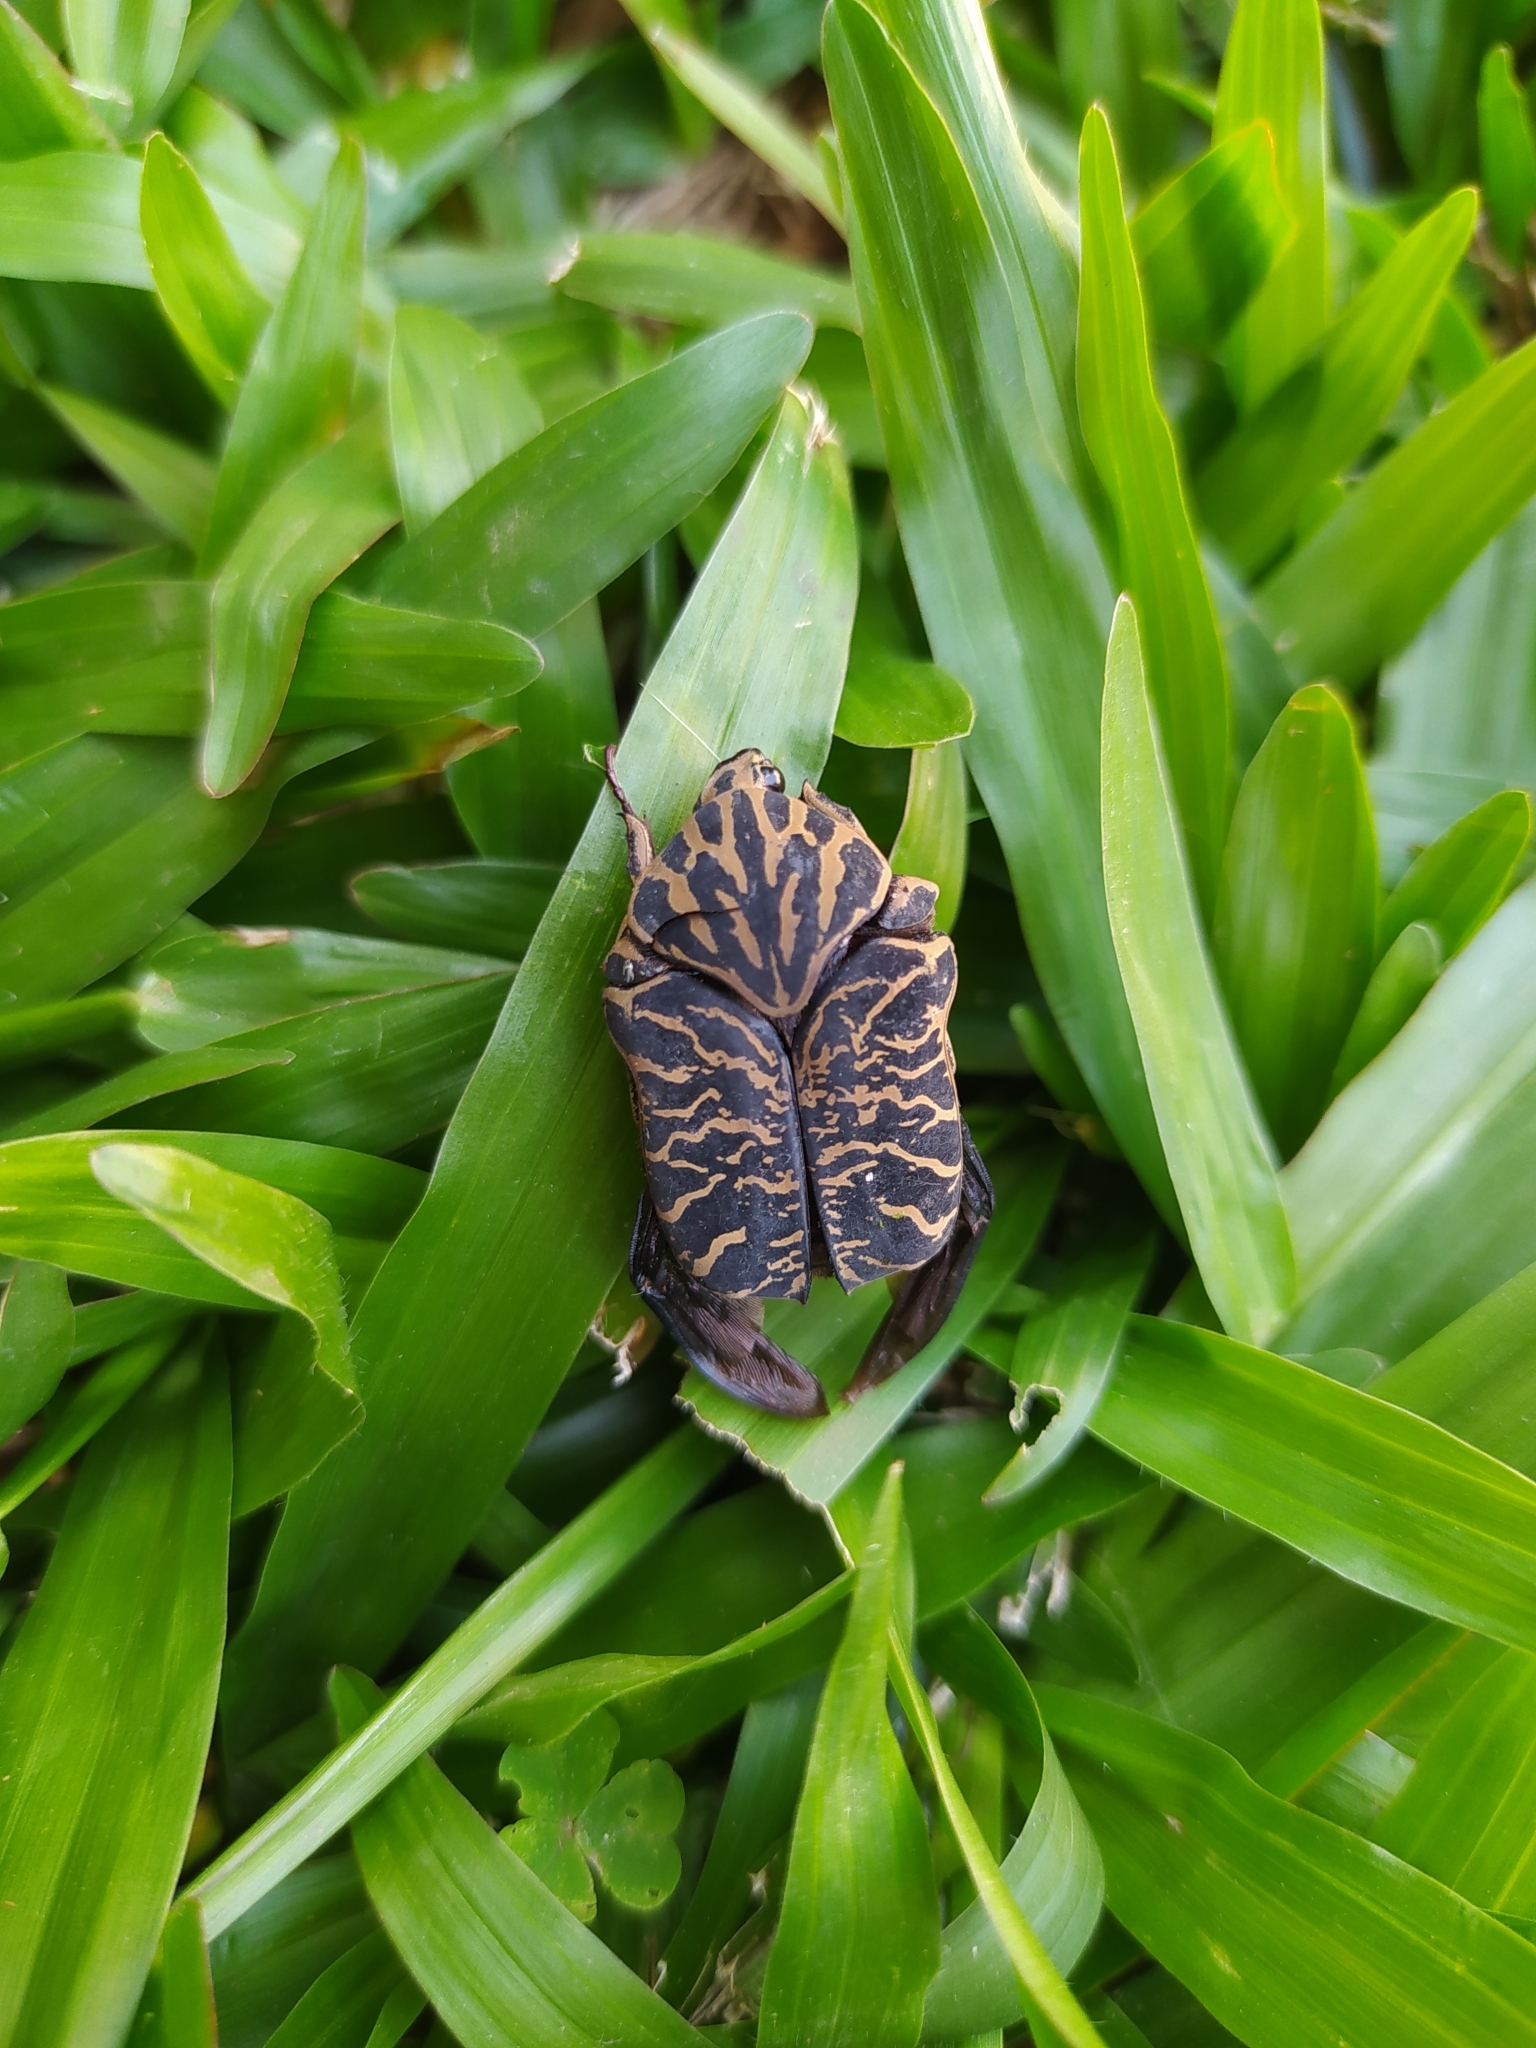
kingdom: Animalia
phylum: Arthropoda
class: Insecta
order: Coleoptera
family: Scarabaeidae
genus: Gymnetis
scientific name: Gymnetis strigosa
